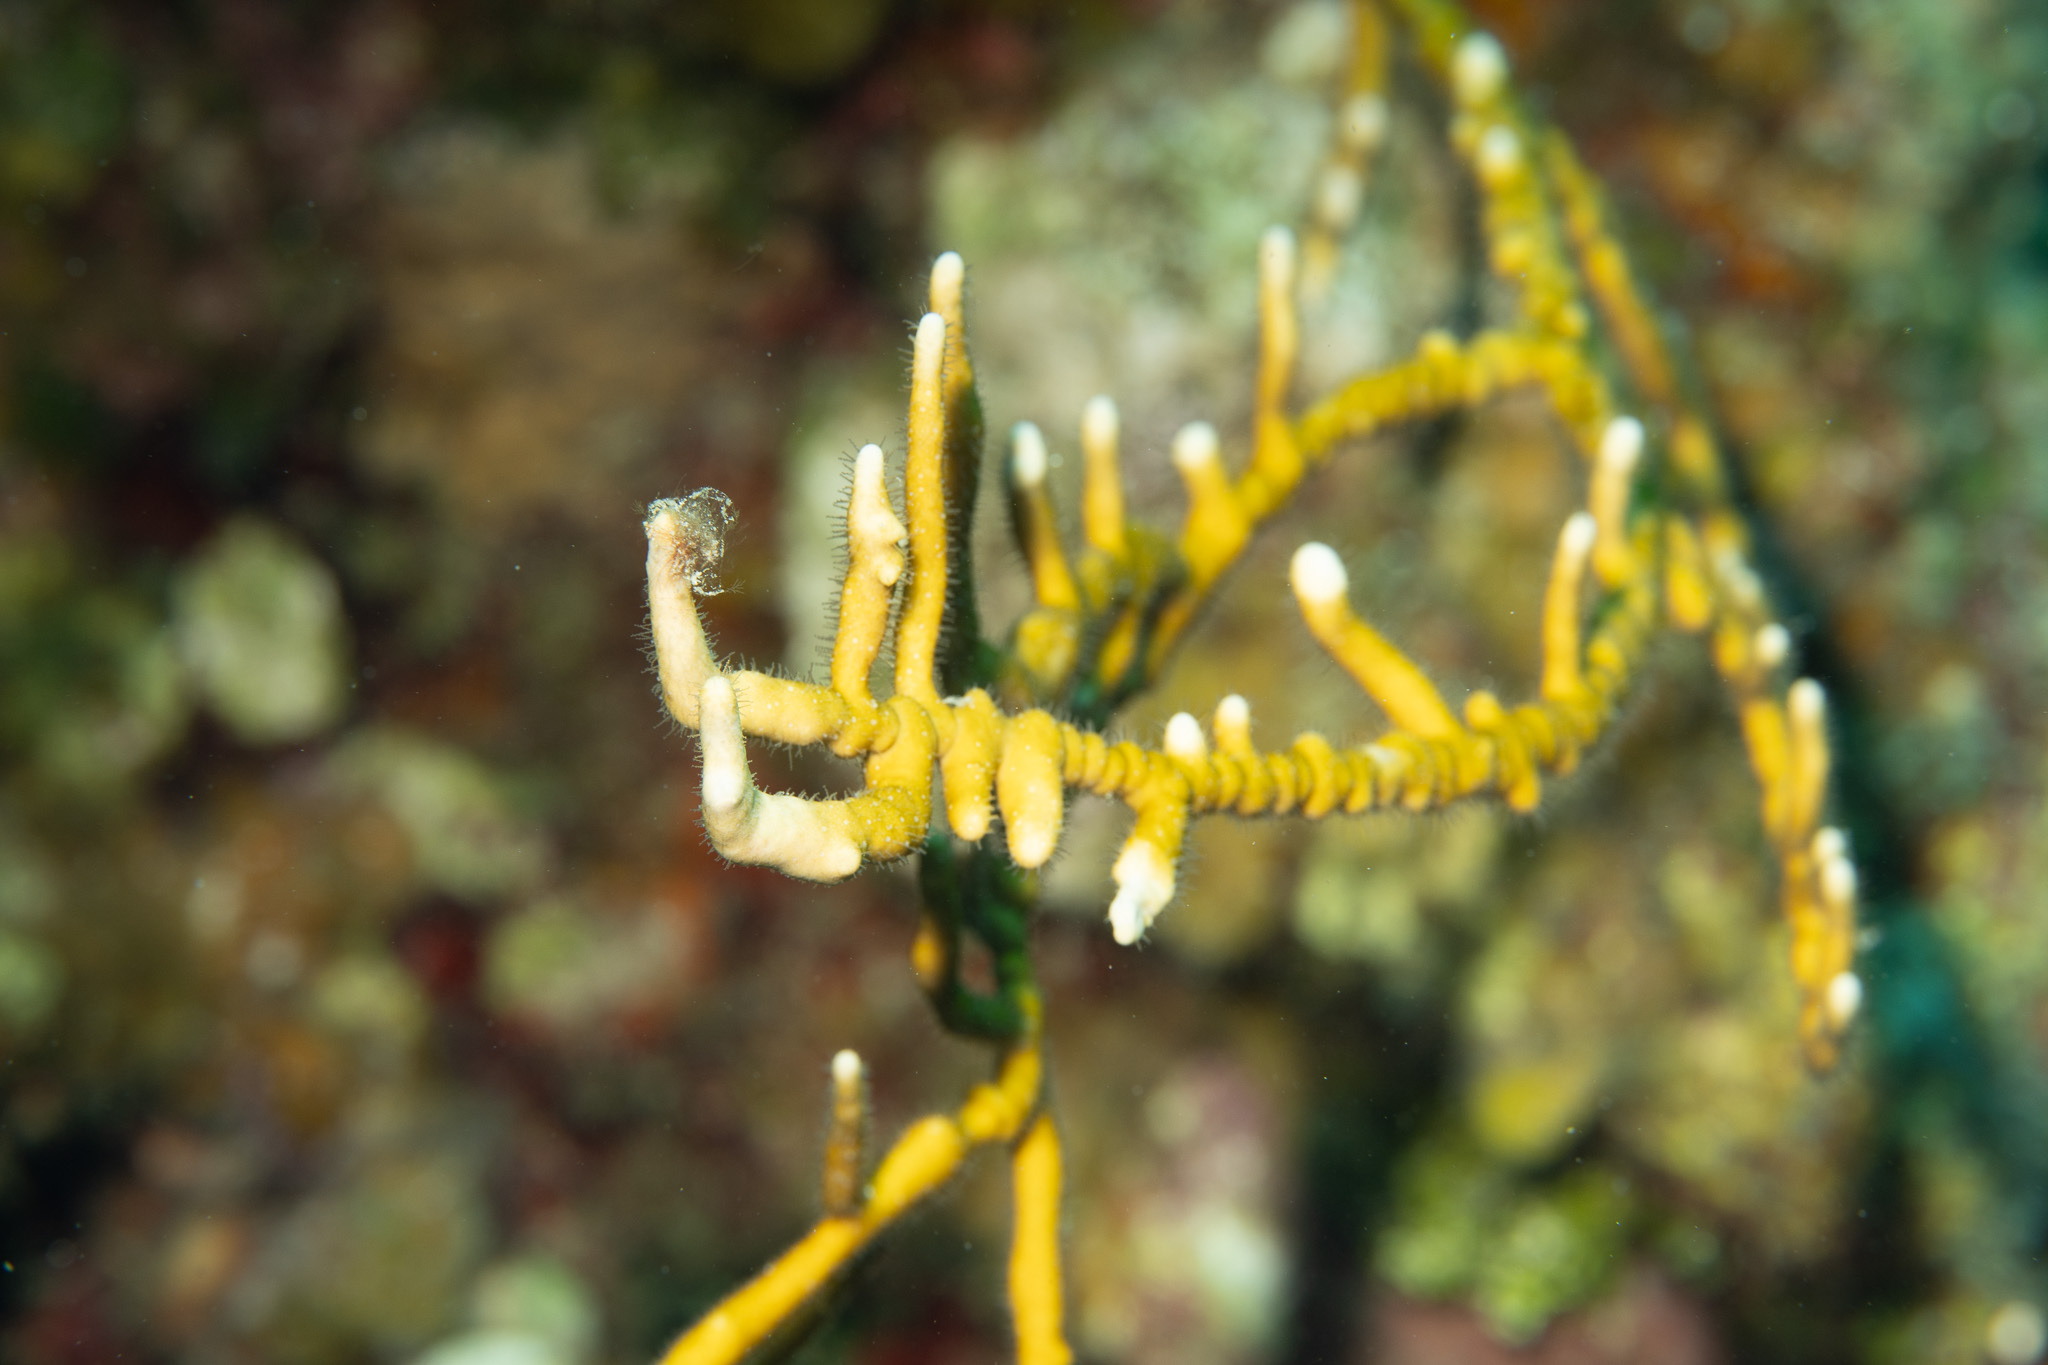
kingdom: Animalia
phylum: Cnidaria
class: Hydrozoa
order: Anthoathecata
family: Milleporidae
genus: Millepora
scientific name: Millepora alcicornis
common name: Branching fire coral
